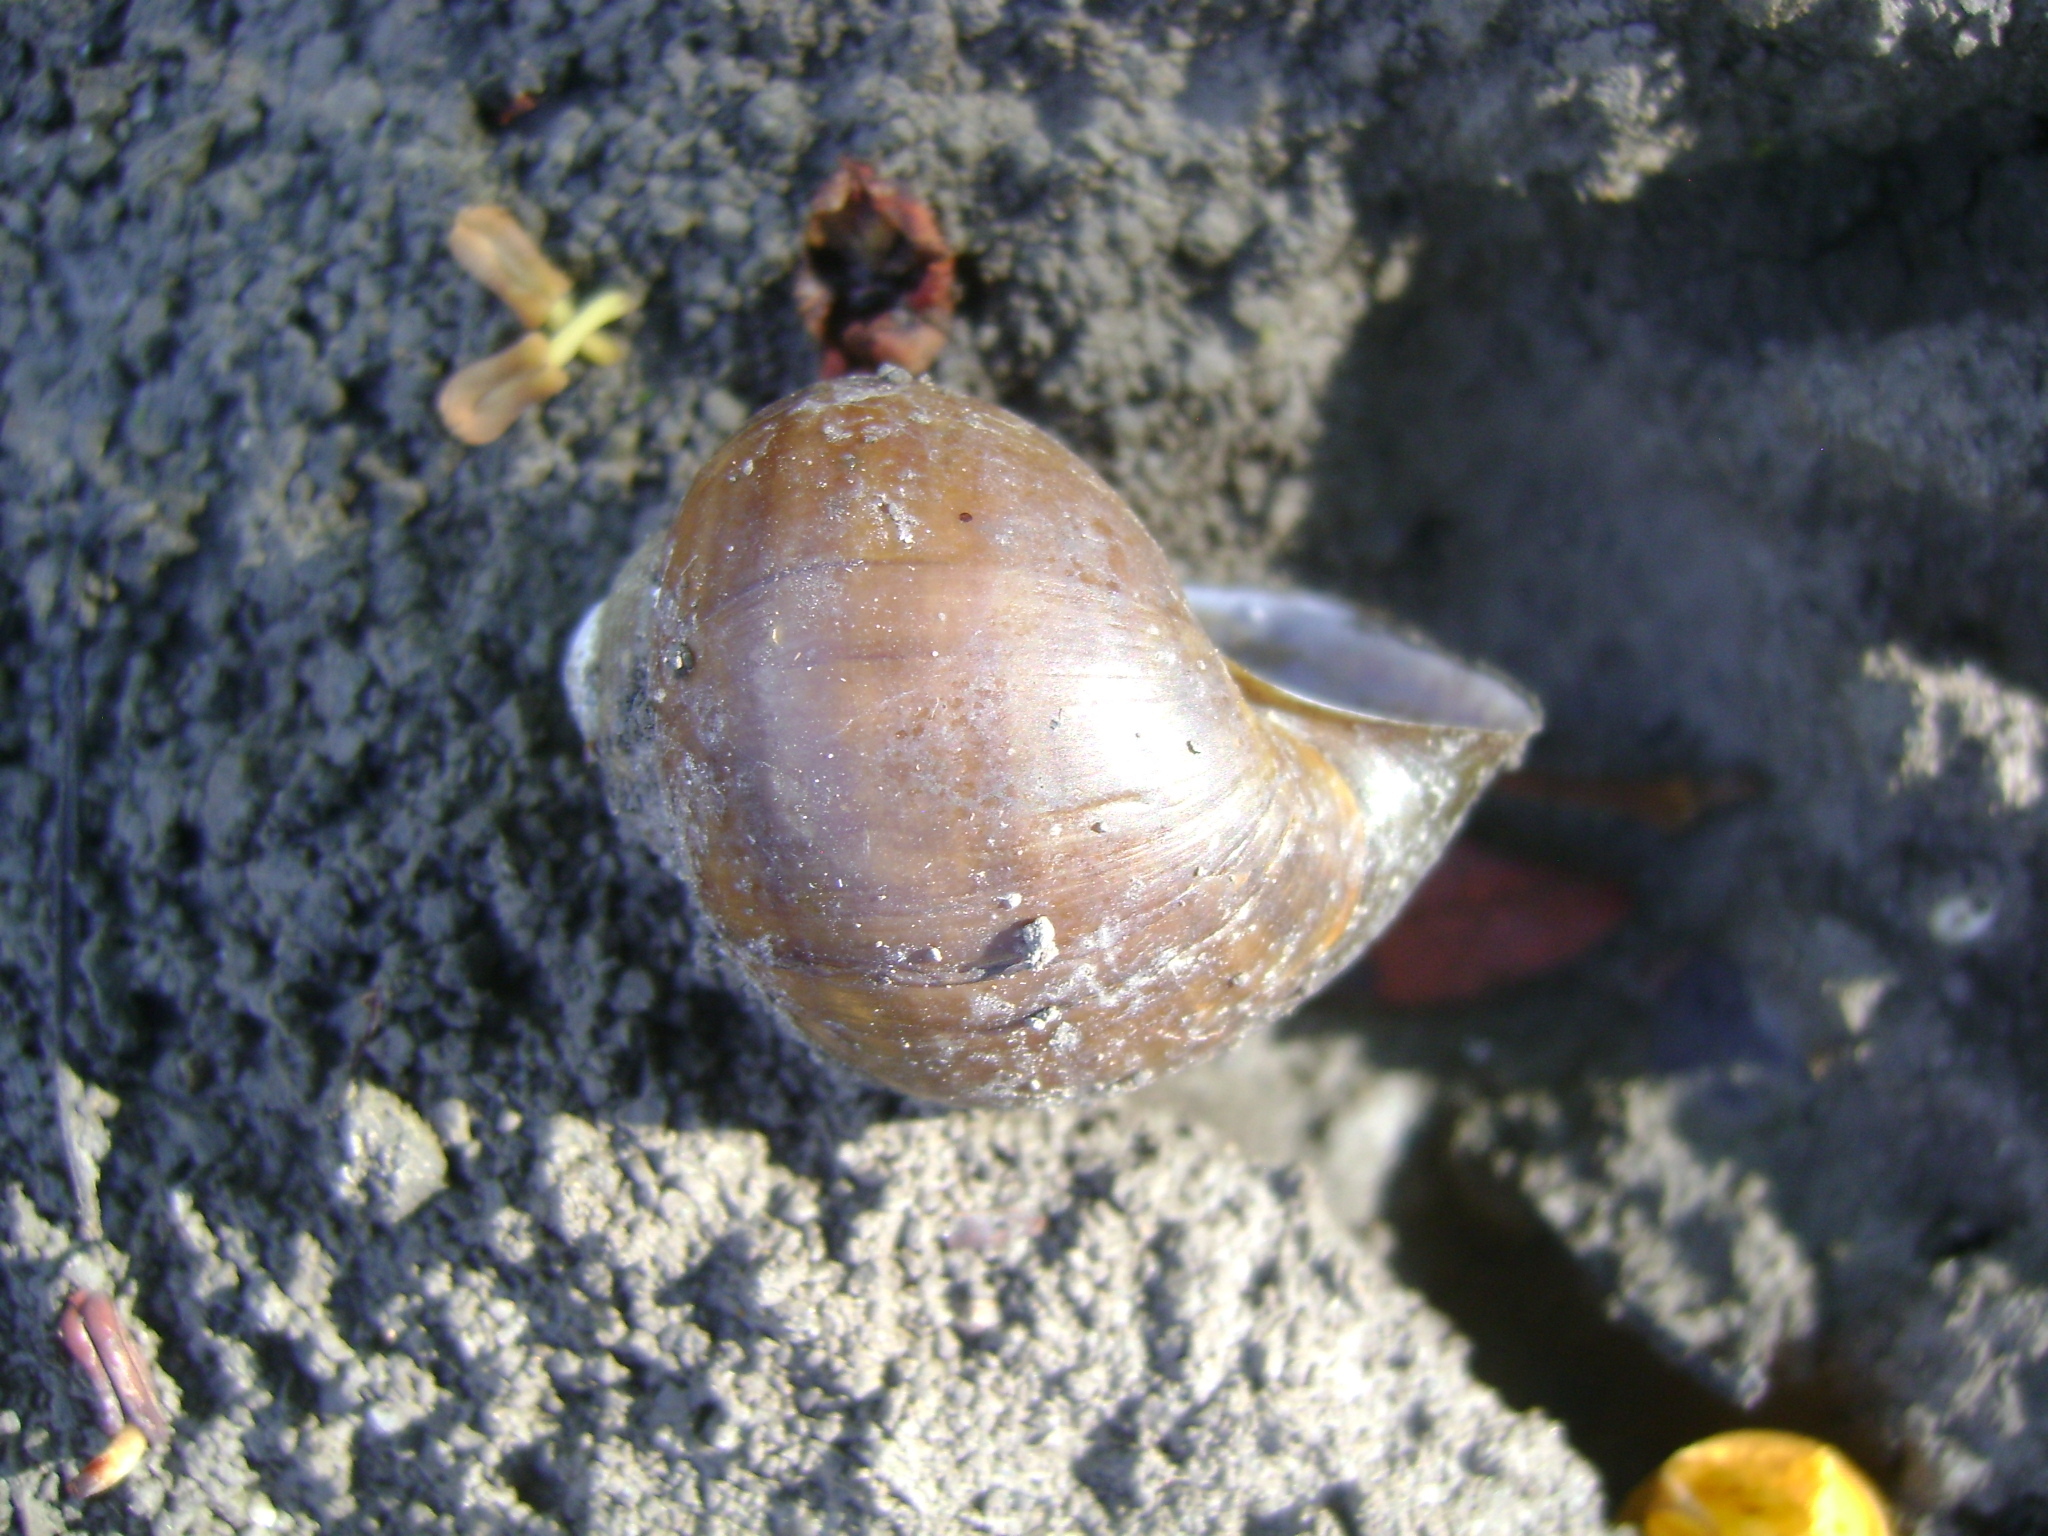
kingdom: Animalia
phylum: Mollusca
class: Gastropoda
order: Architaenioglossa
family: Ampullariidae
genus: Pomacea
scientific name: Pomacea flagellata
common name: Maya apple snail
